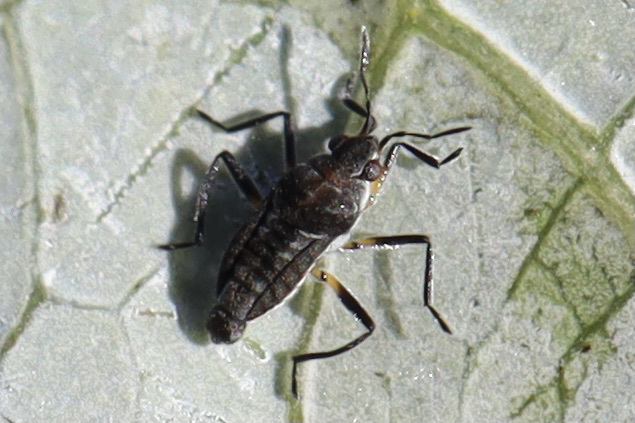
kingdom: Animalia
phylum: Arthropoda
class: Insecta
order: Hemiptera
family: Veliidae
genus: Microvelia
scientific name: Microvelia pulchella
